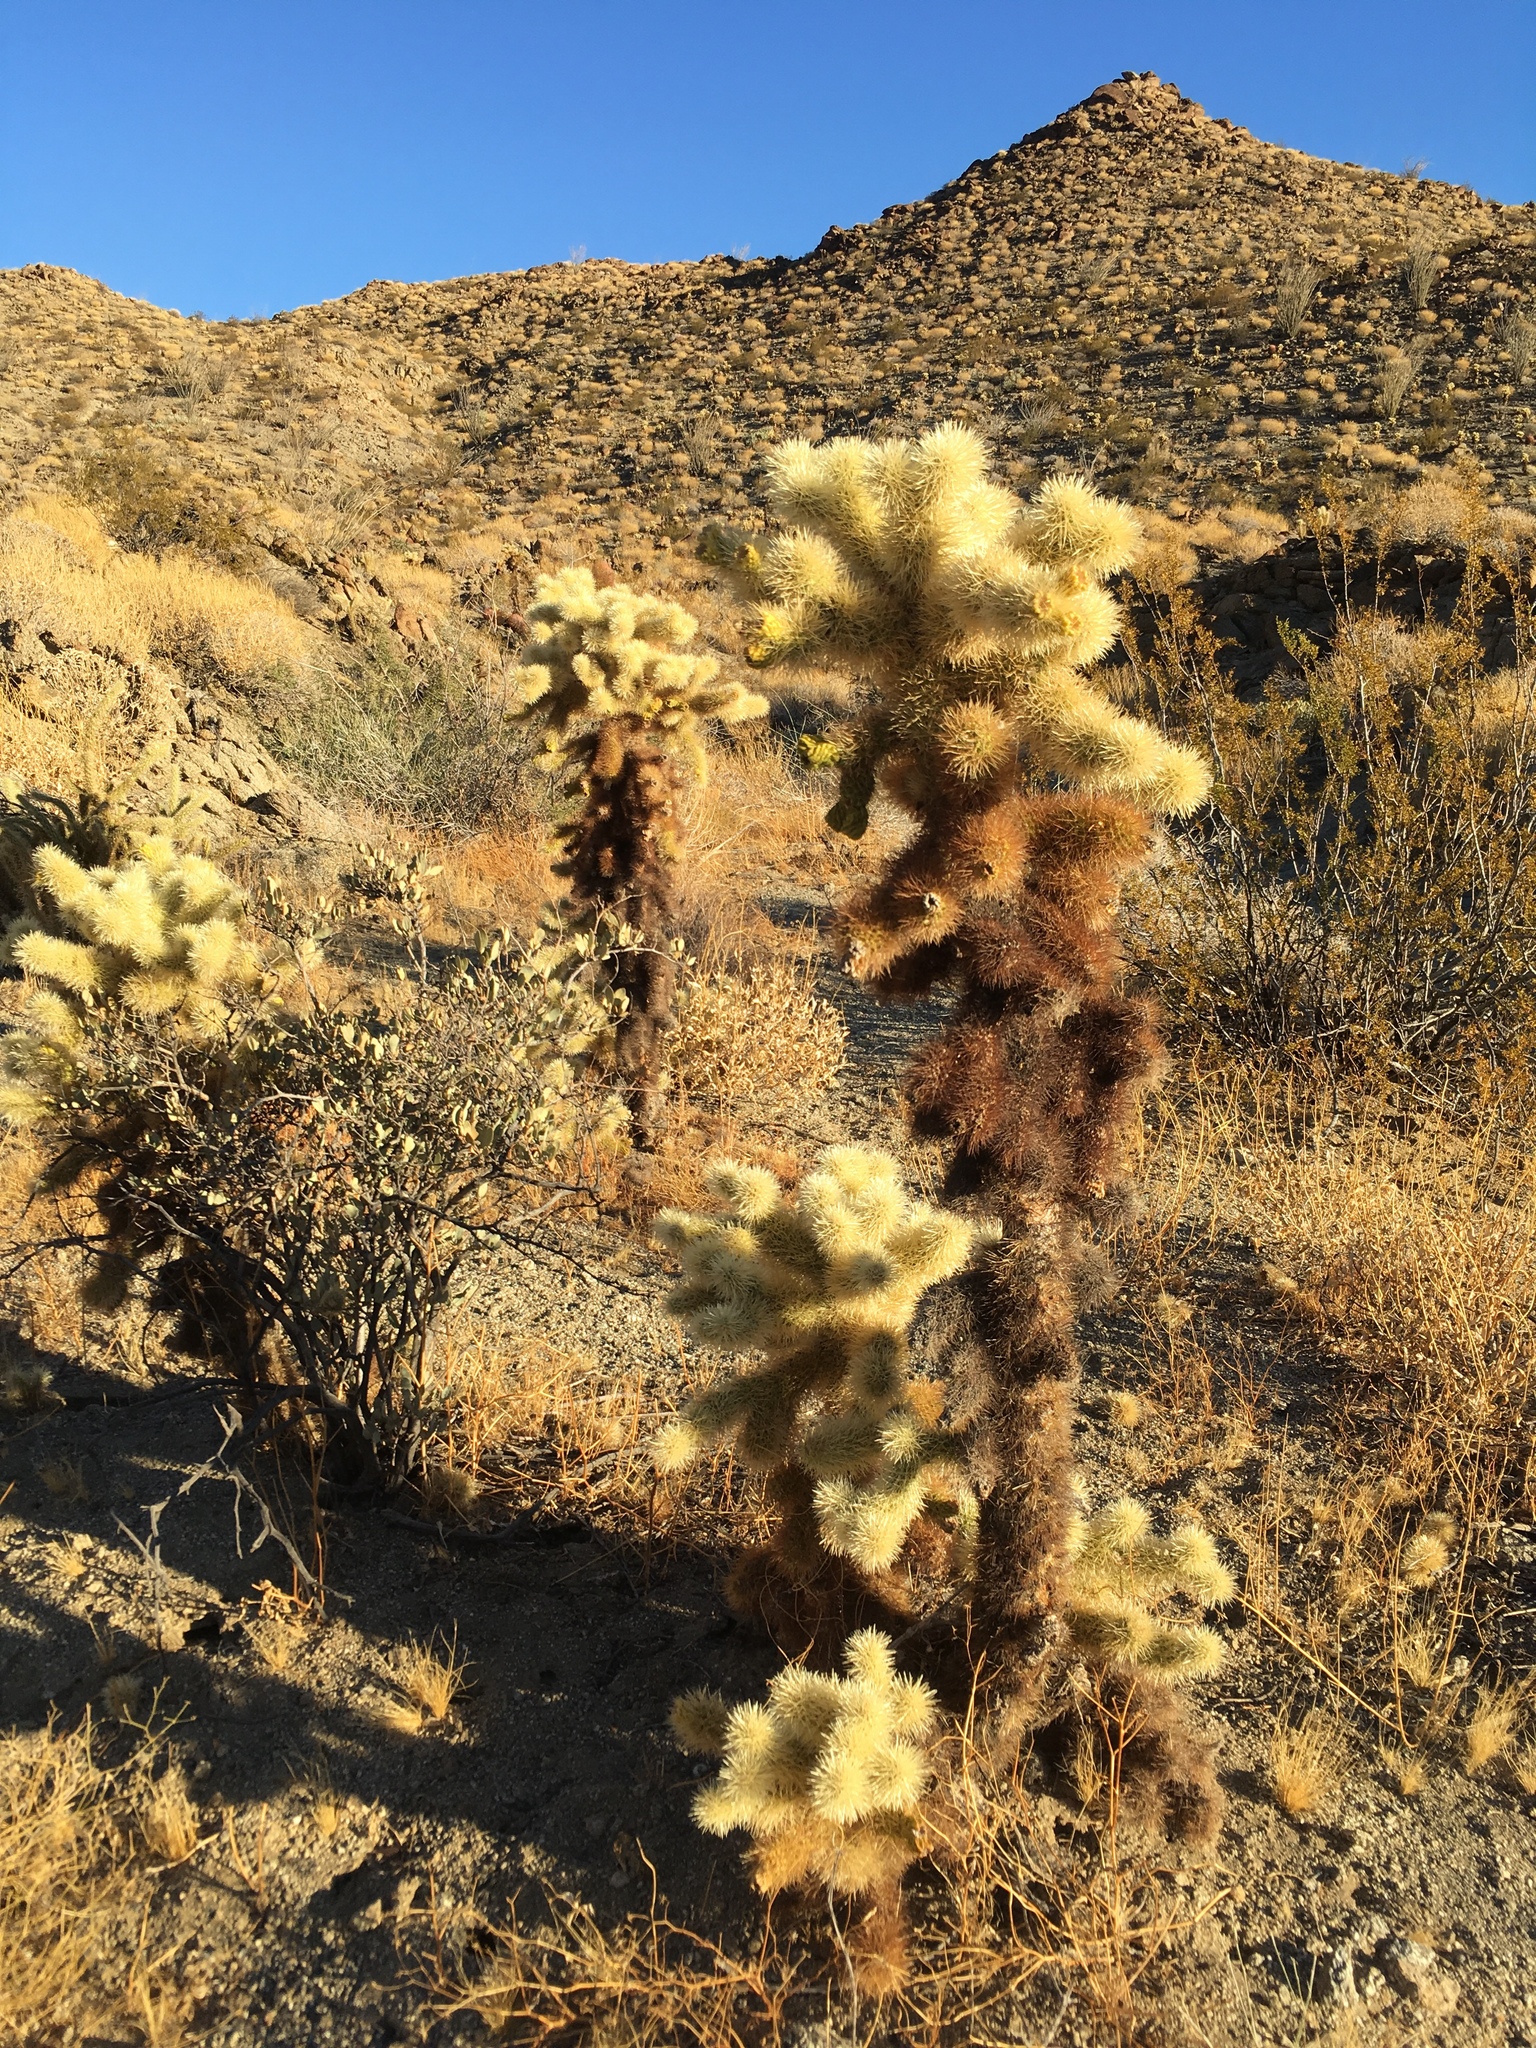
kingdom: Plantae
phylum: Tracheophyta
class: Magnoliopsida
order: Caryophyllales
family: Cactaceae
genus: Cylindropuntia
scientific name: Cylindropuntia fosbergii
